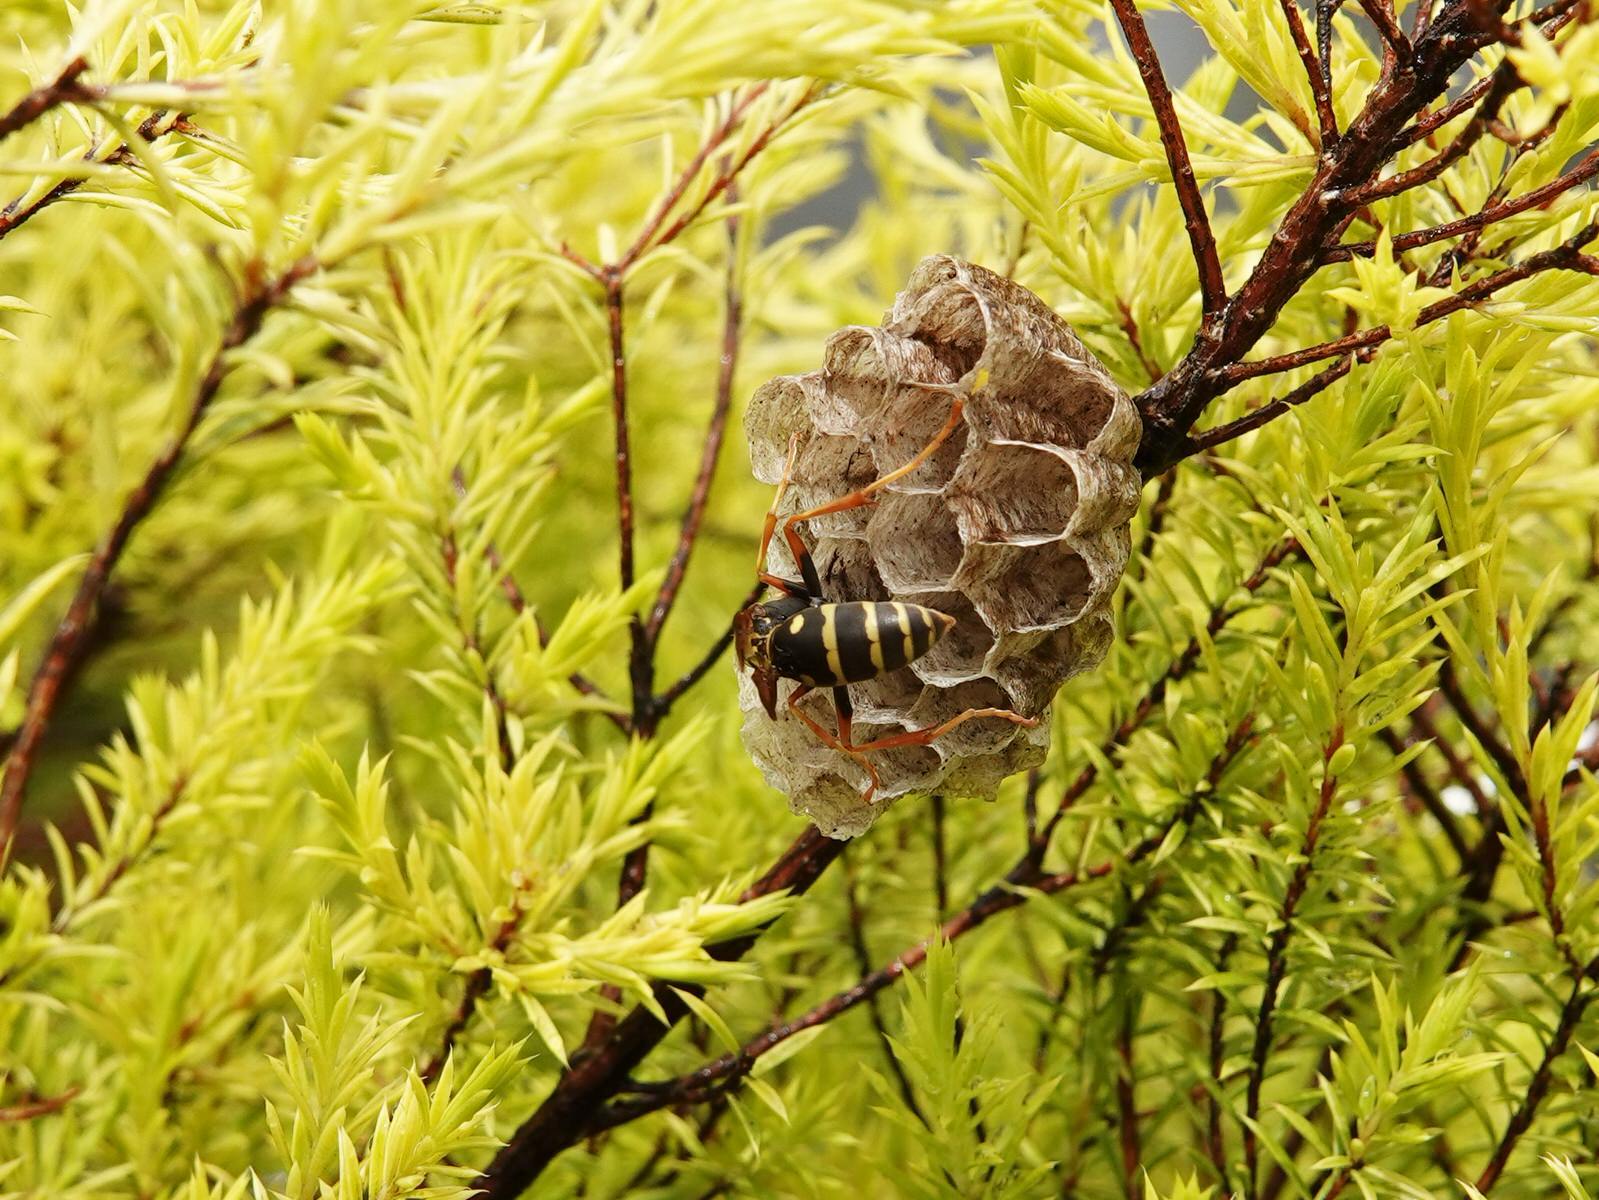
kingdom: Animalia
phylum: Arthropoda
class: Insecta
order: Hymenoptera
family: Eumenidae
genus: Polistes
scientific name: Polistes chinensis
